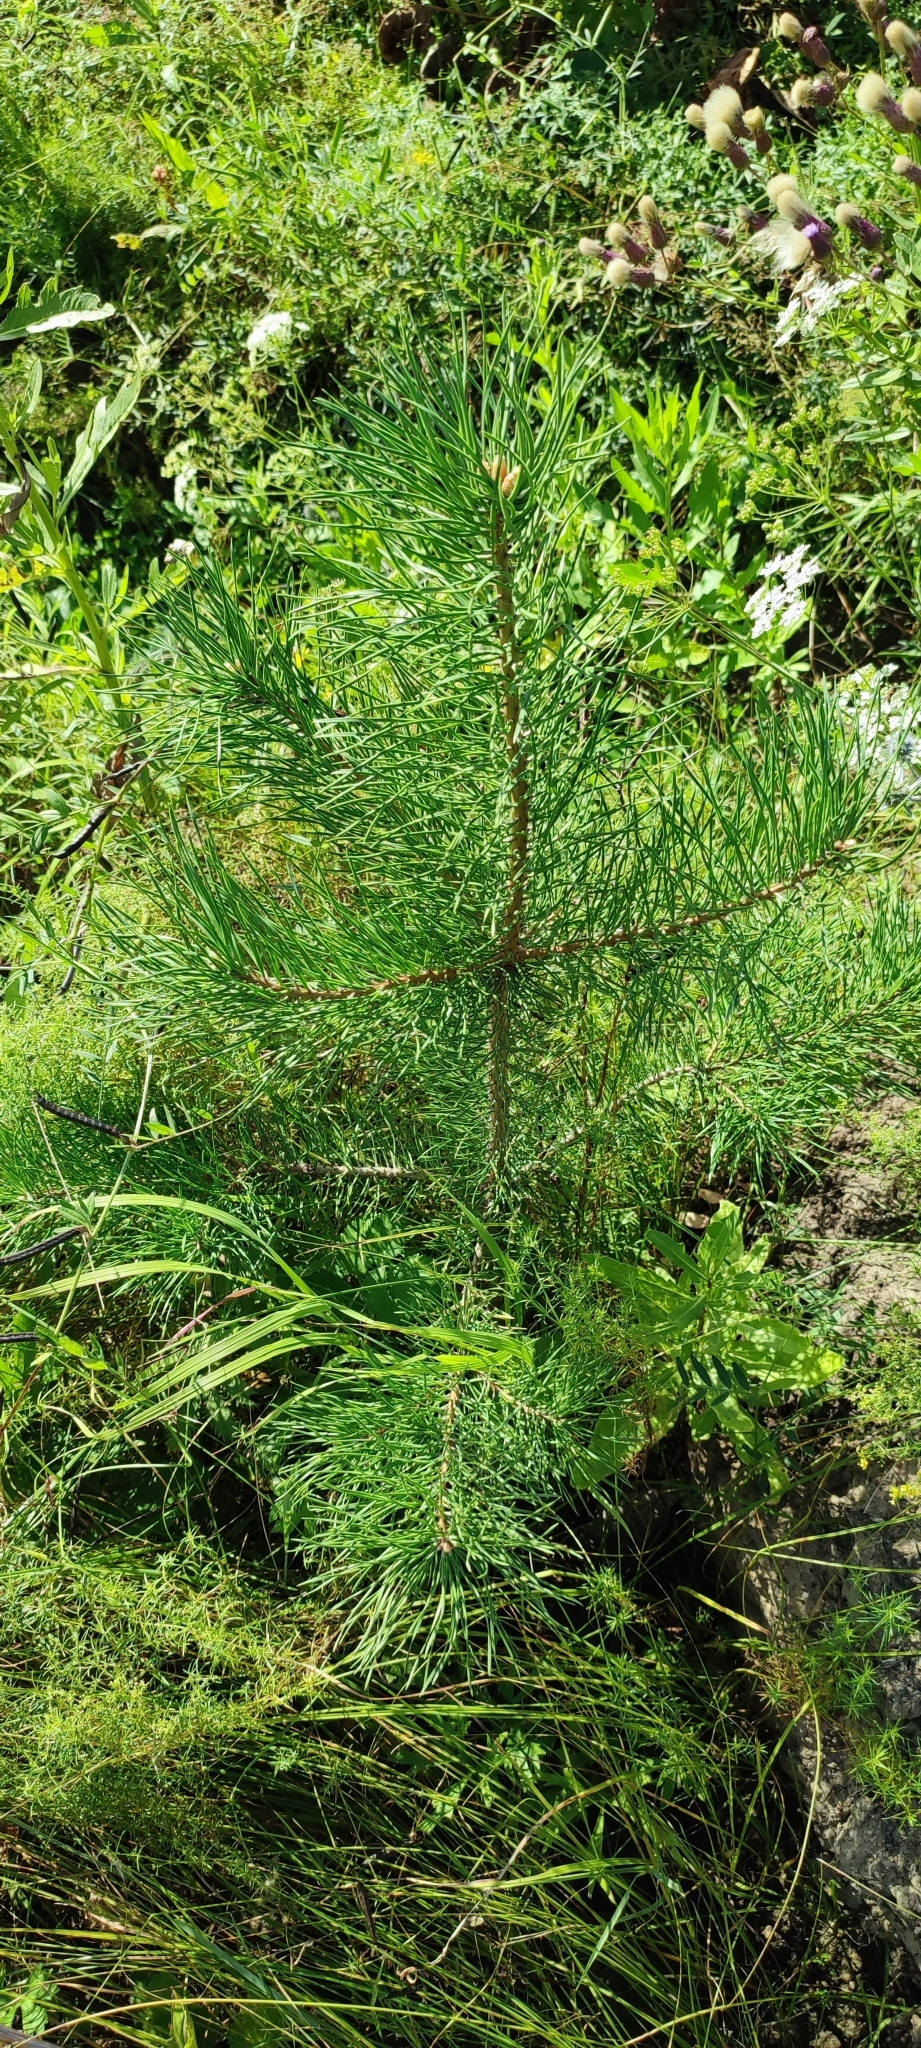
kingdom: Plantae
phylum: Tracheophyta
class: Pinopsida
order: Pinales
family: Pinaceae
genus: Pinus
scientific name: Pinus sylvestris
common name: Scots pine
